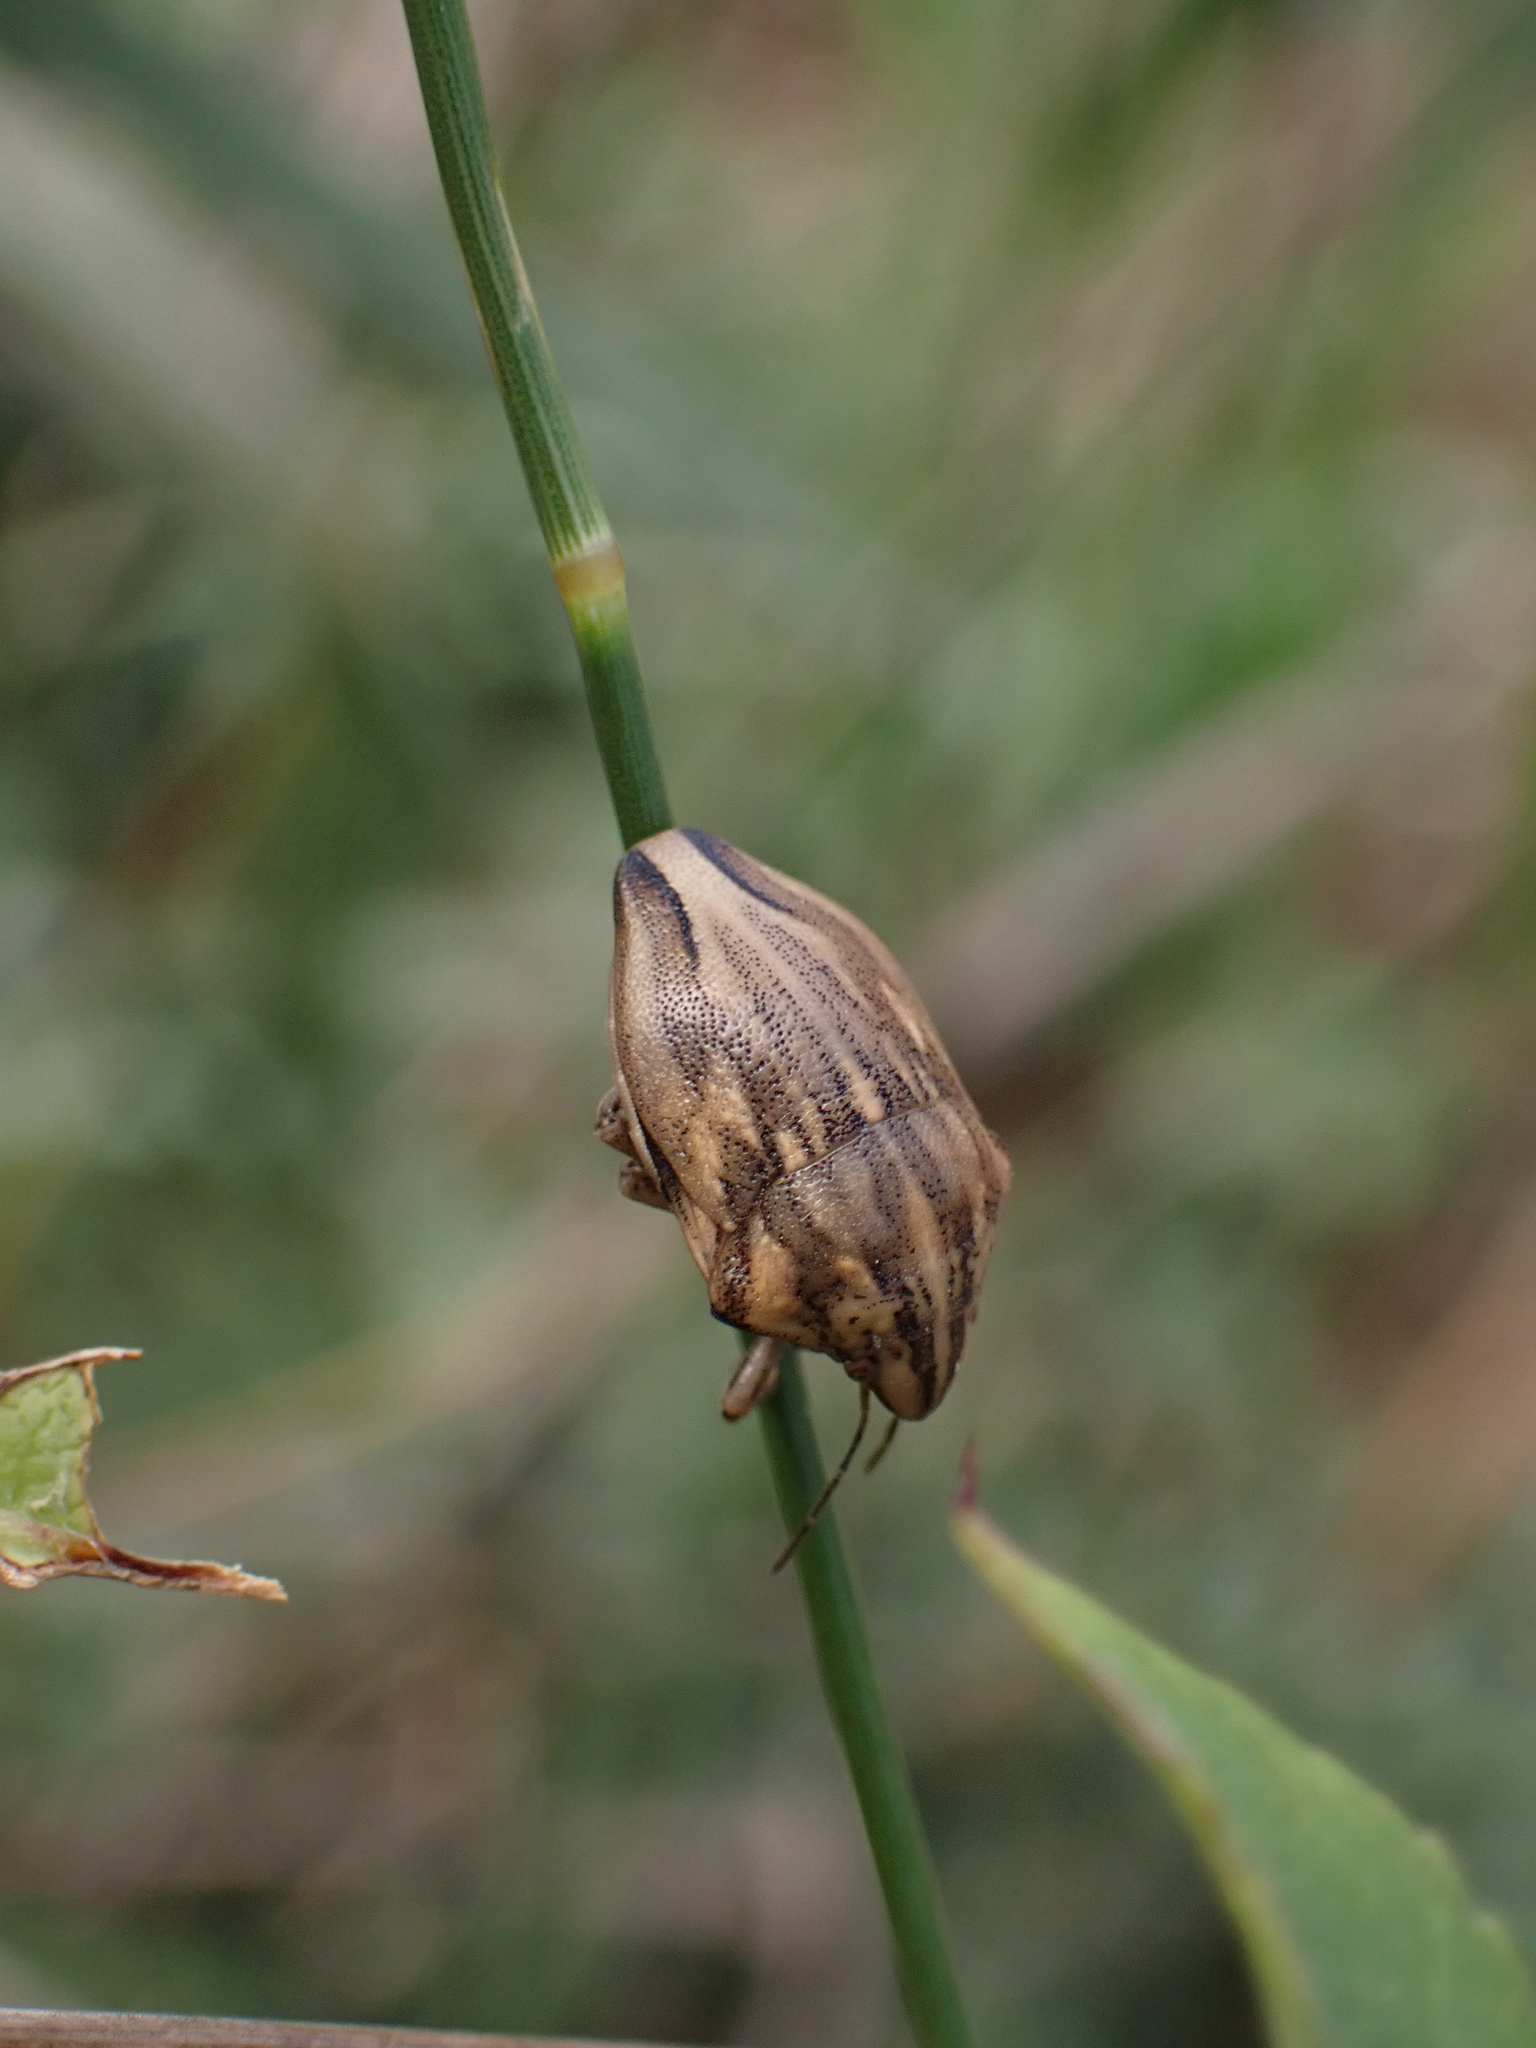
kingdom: Animalia
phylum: Arthropoda
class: Insecta
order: Hemiptera
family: Scutelleridae
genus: Odontotarsus
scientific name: Odontotarsus purpureolineatus
